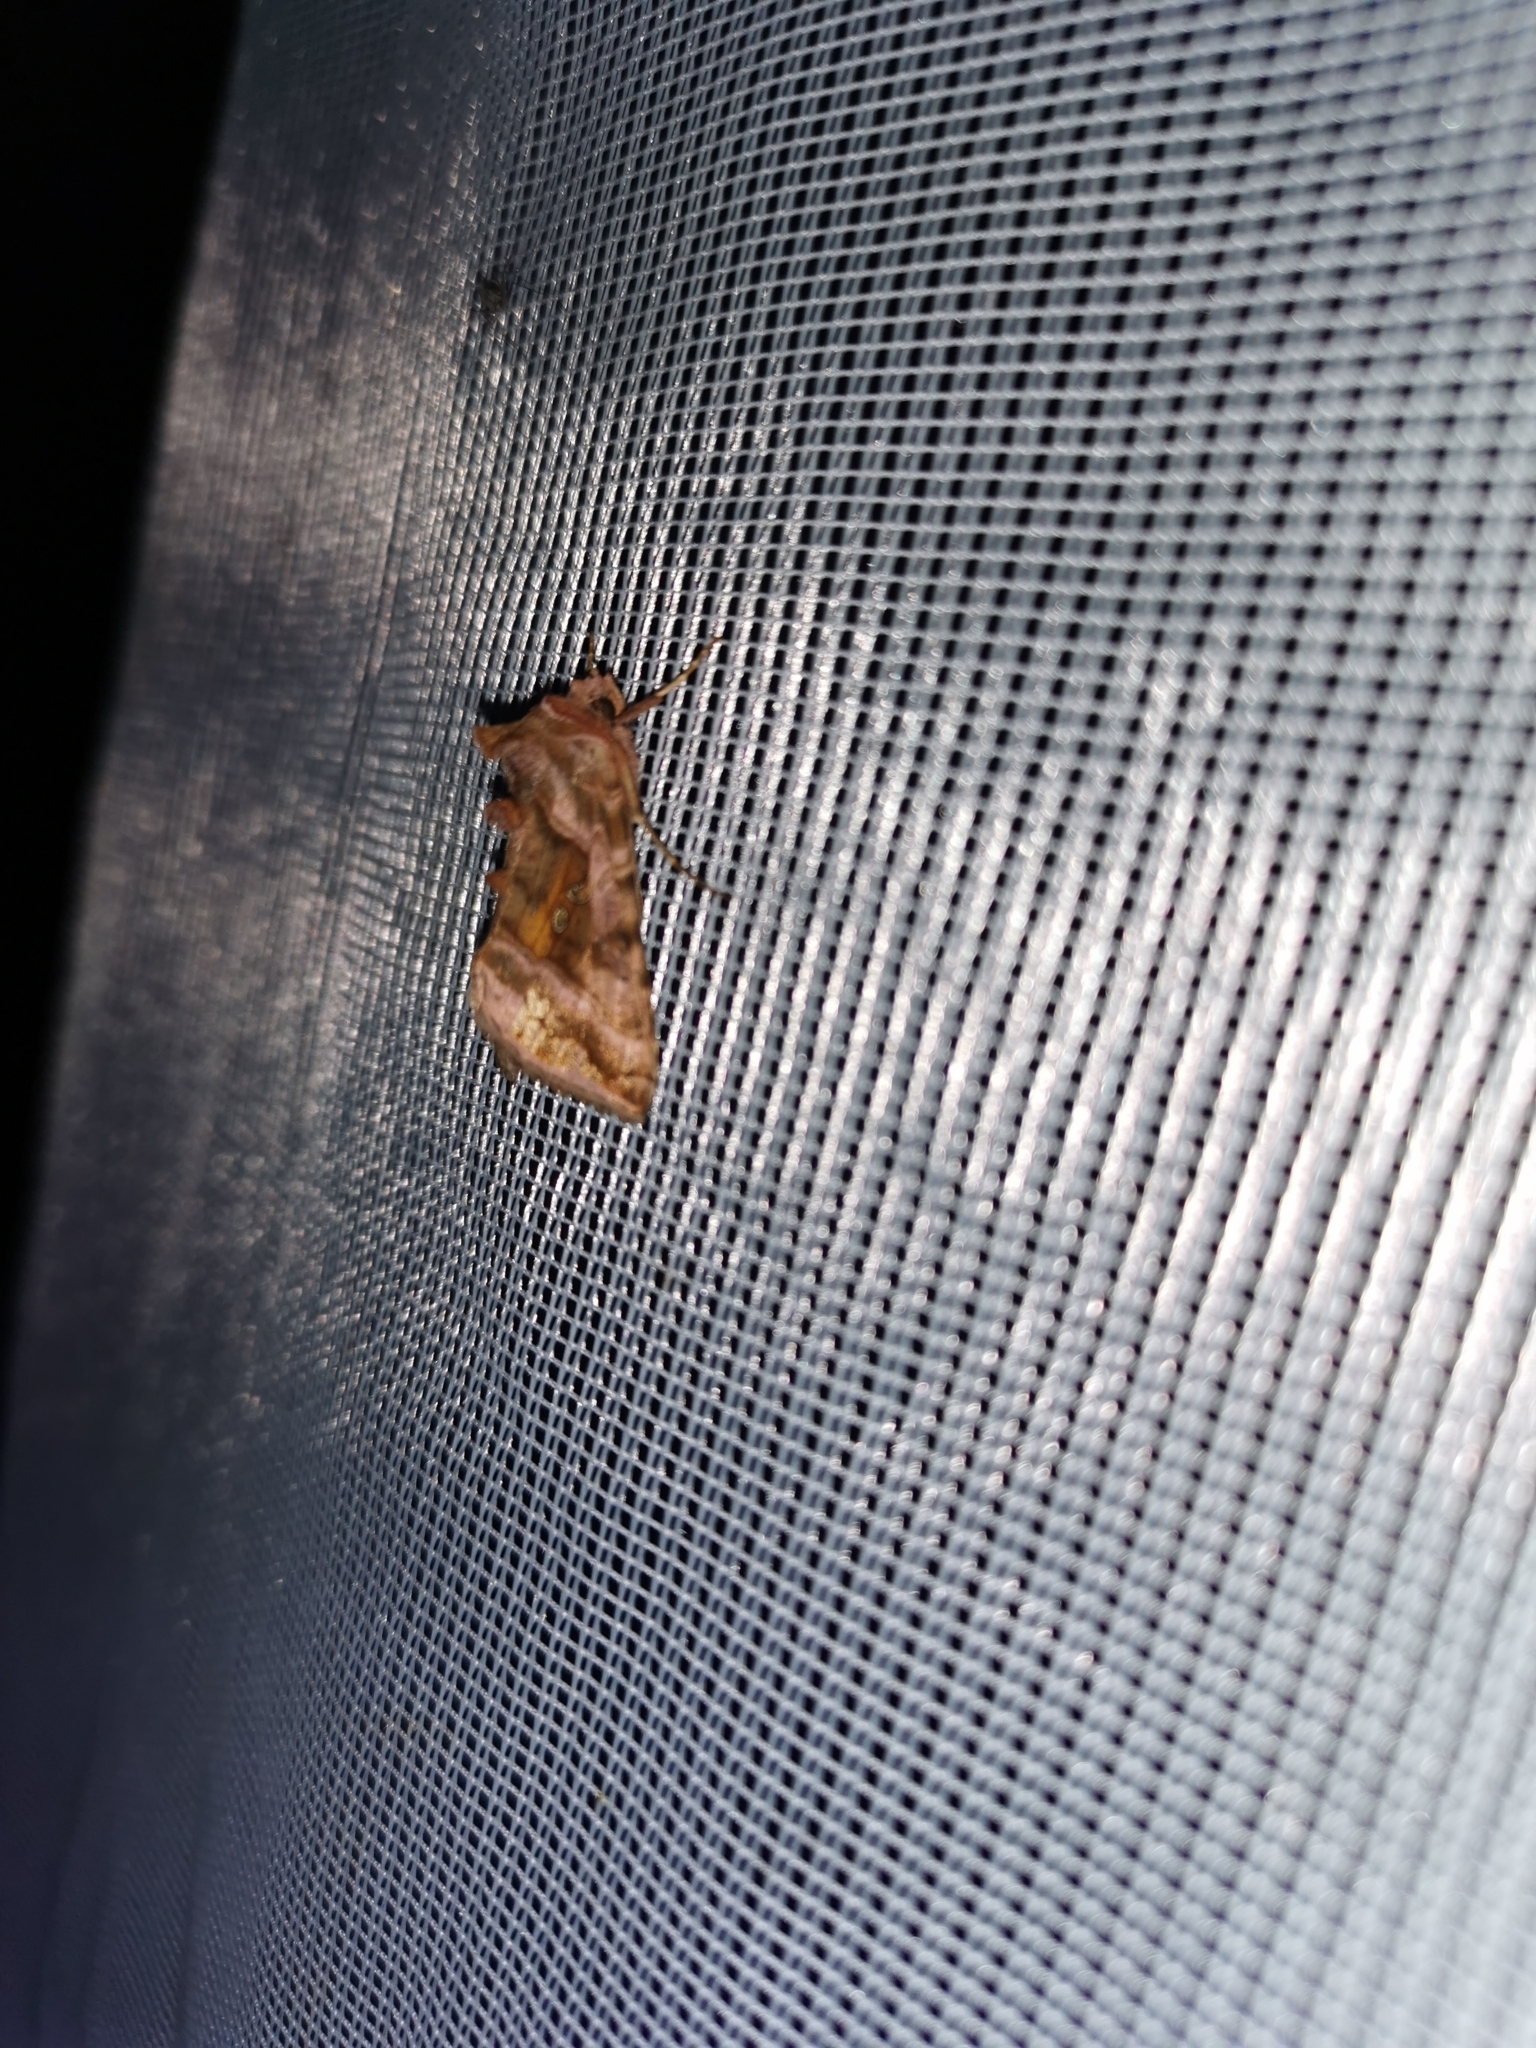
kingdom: Animalia
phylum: Arthropoda
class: Insecta
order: Lepidoptera
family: Noctuidae
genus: Autographa
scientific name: Autographa jota
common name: Plain golden y
